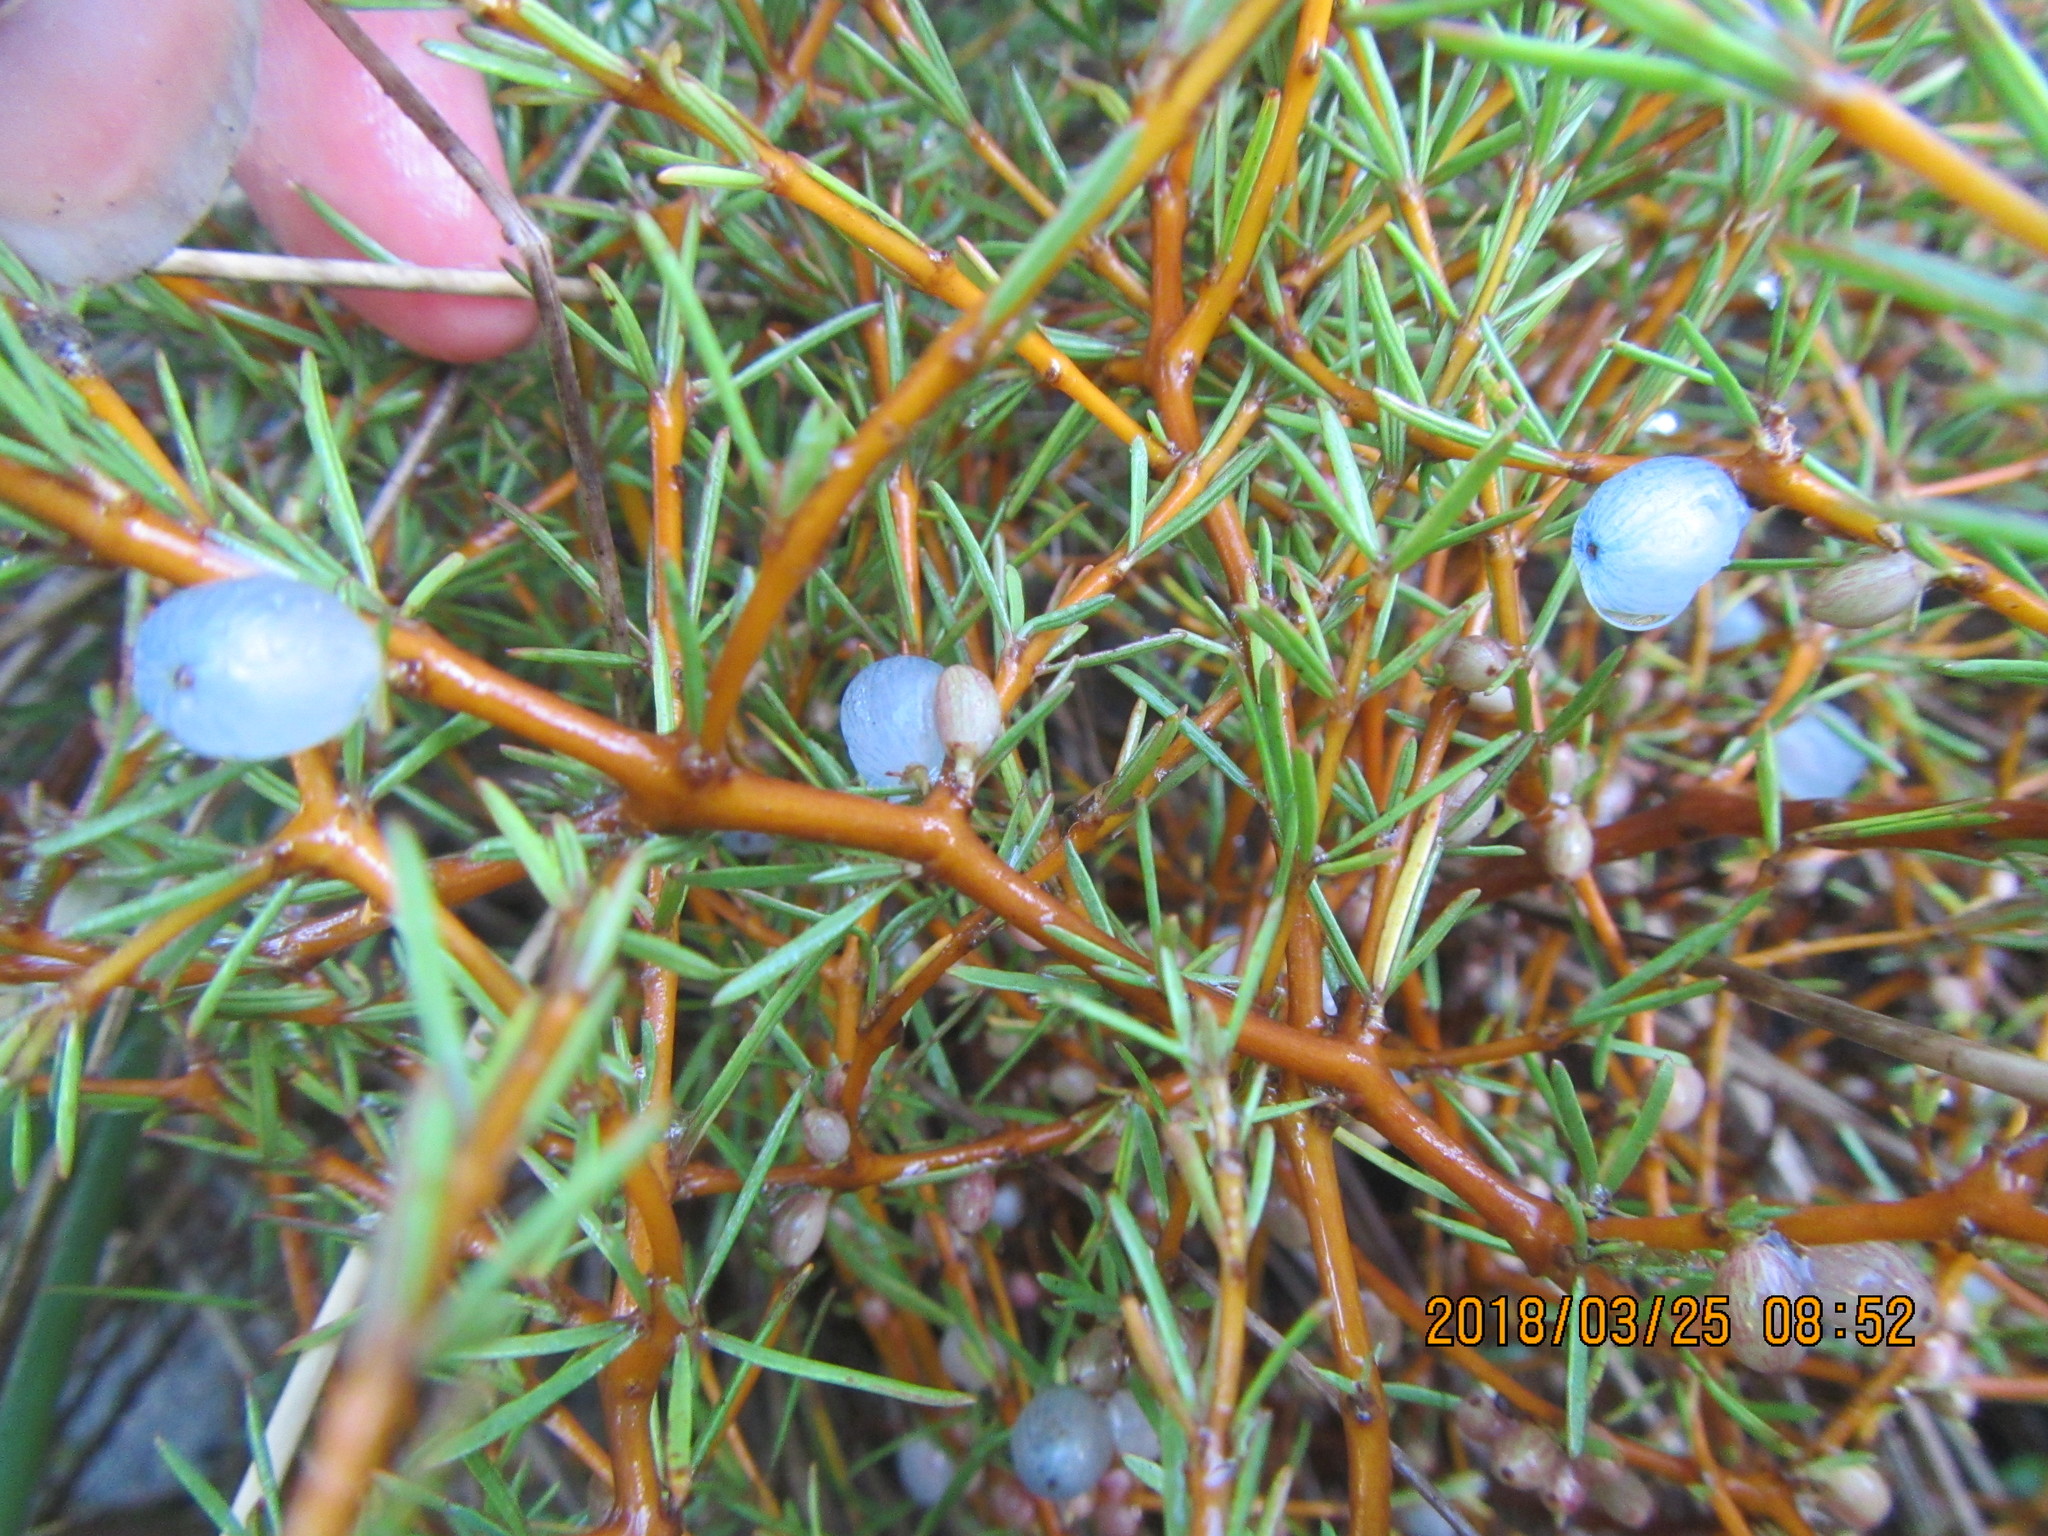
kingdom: Plantae
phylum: Tracheophyta
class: Magnoliopsida
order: Gentianales
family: Rubiaceae
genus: Coprosma
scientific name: Coprosma acerosa
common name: Sand coprosma
